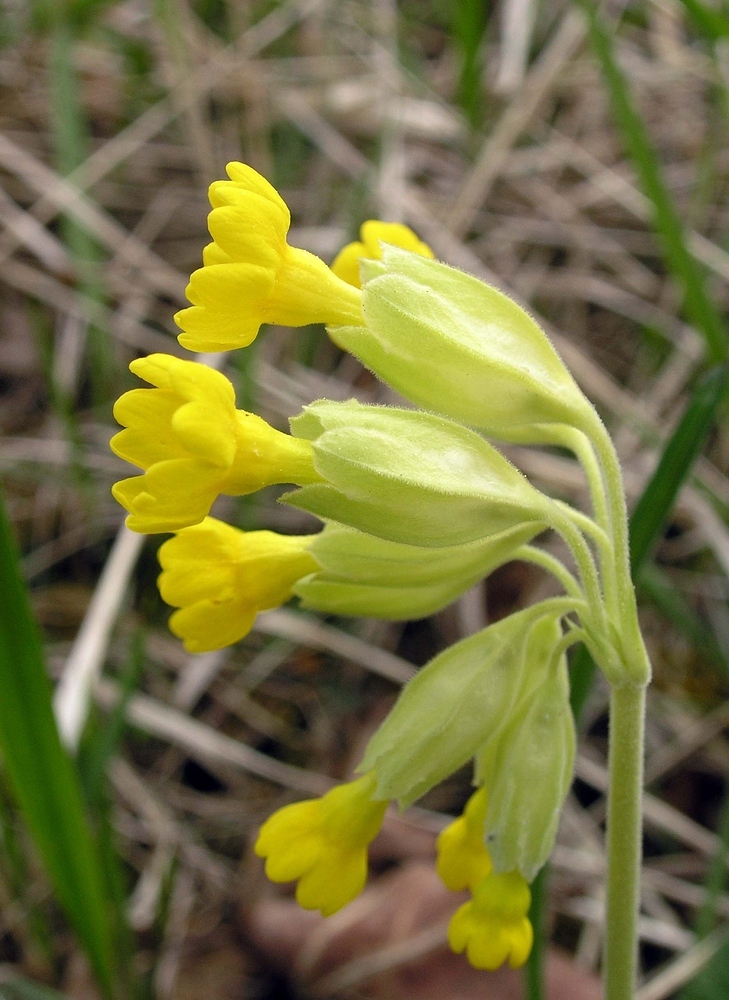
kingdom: Plantae
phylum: Tracheophyta
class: Magnoliopsida
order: Ericales
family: Primulaceae
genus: Primula
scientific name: Primula veris
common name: Cowslip
